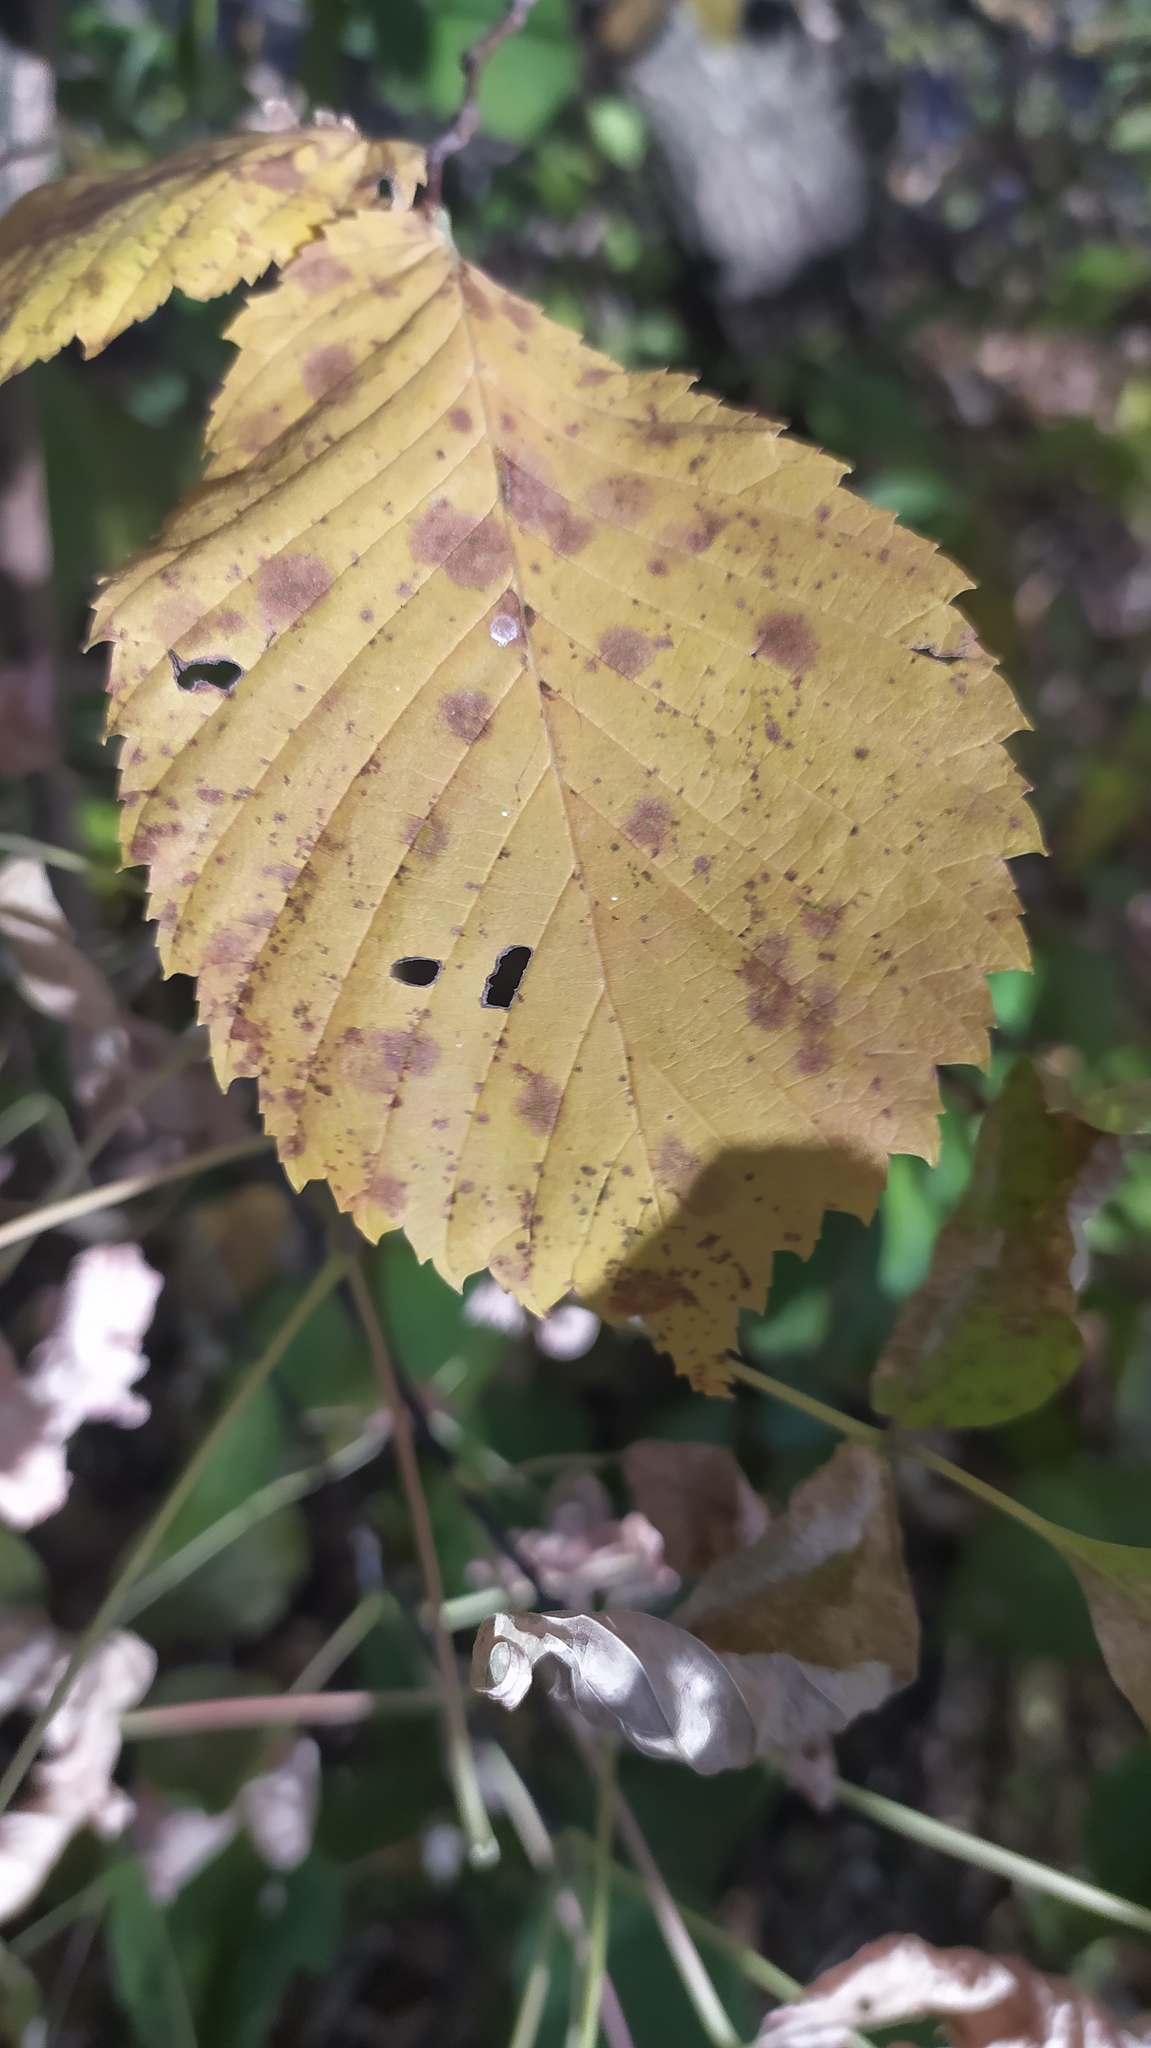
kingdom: Plantae
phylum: Tracheophyta
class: Magnoliopsida
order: Rosales
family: Ulmaceae
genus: Ulmus
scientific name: Ulmus laevis
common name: European white-elm
